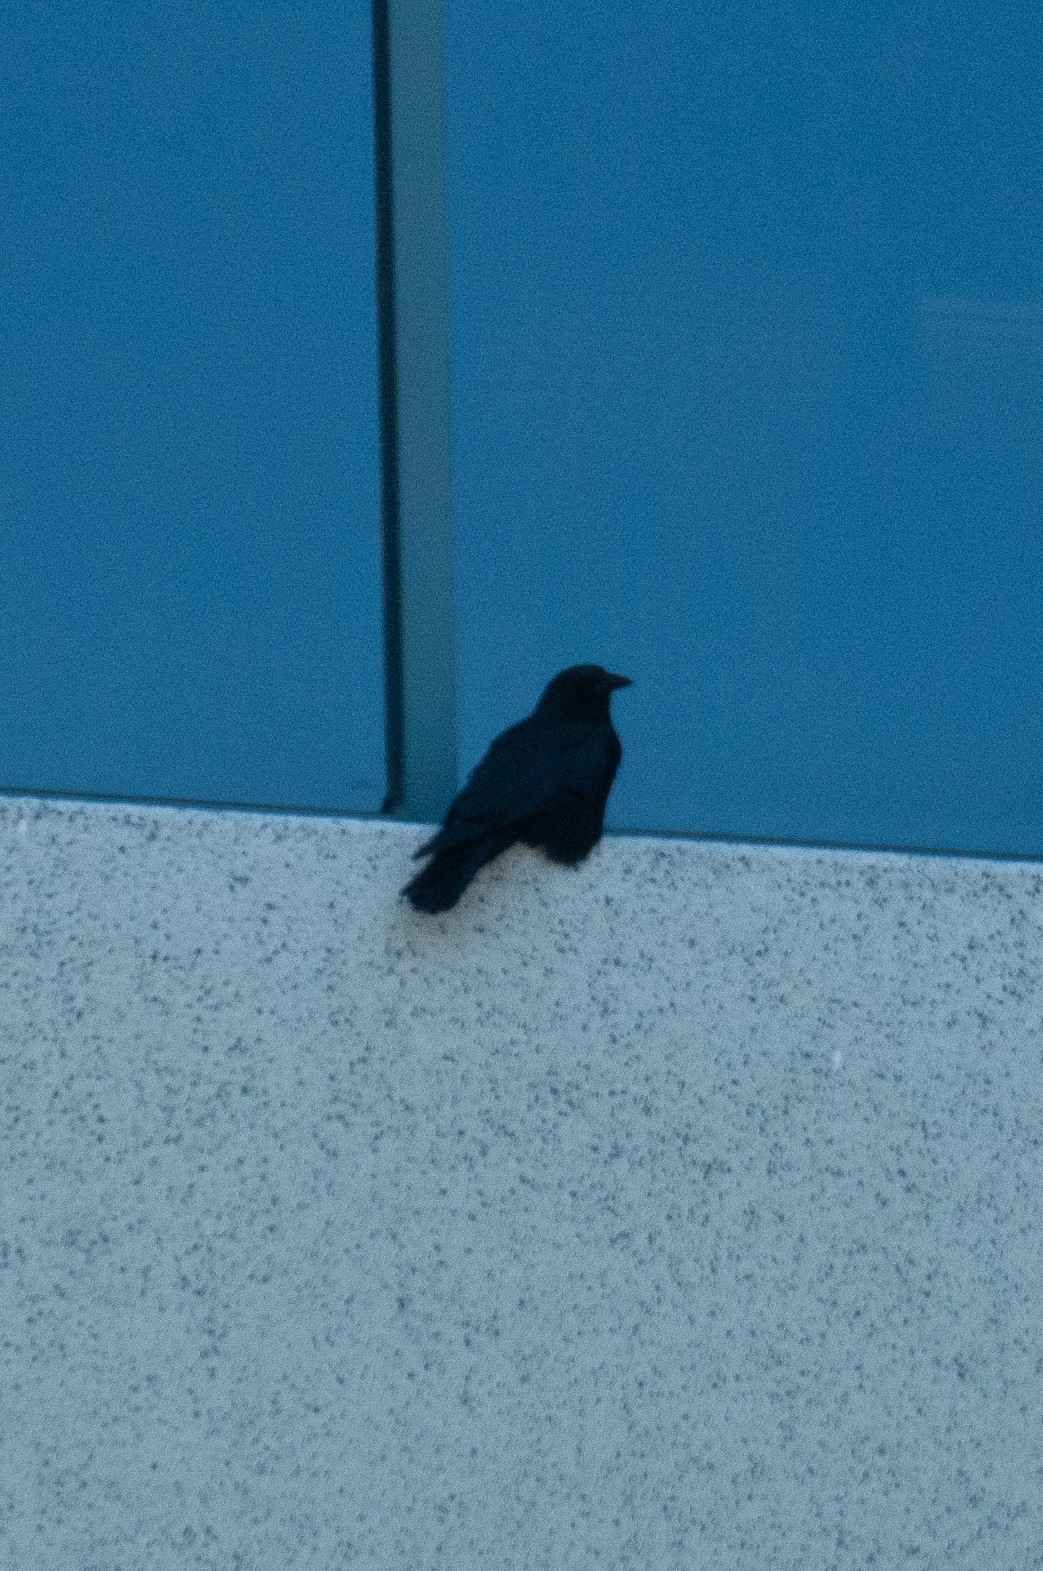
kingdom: Animalia
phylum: Chordata
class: Aves
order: Passeriformes
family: Corvidae
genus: Corvus
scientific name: Corvus brachyrhynchos
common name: American crow
